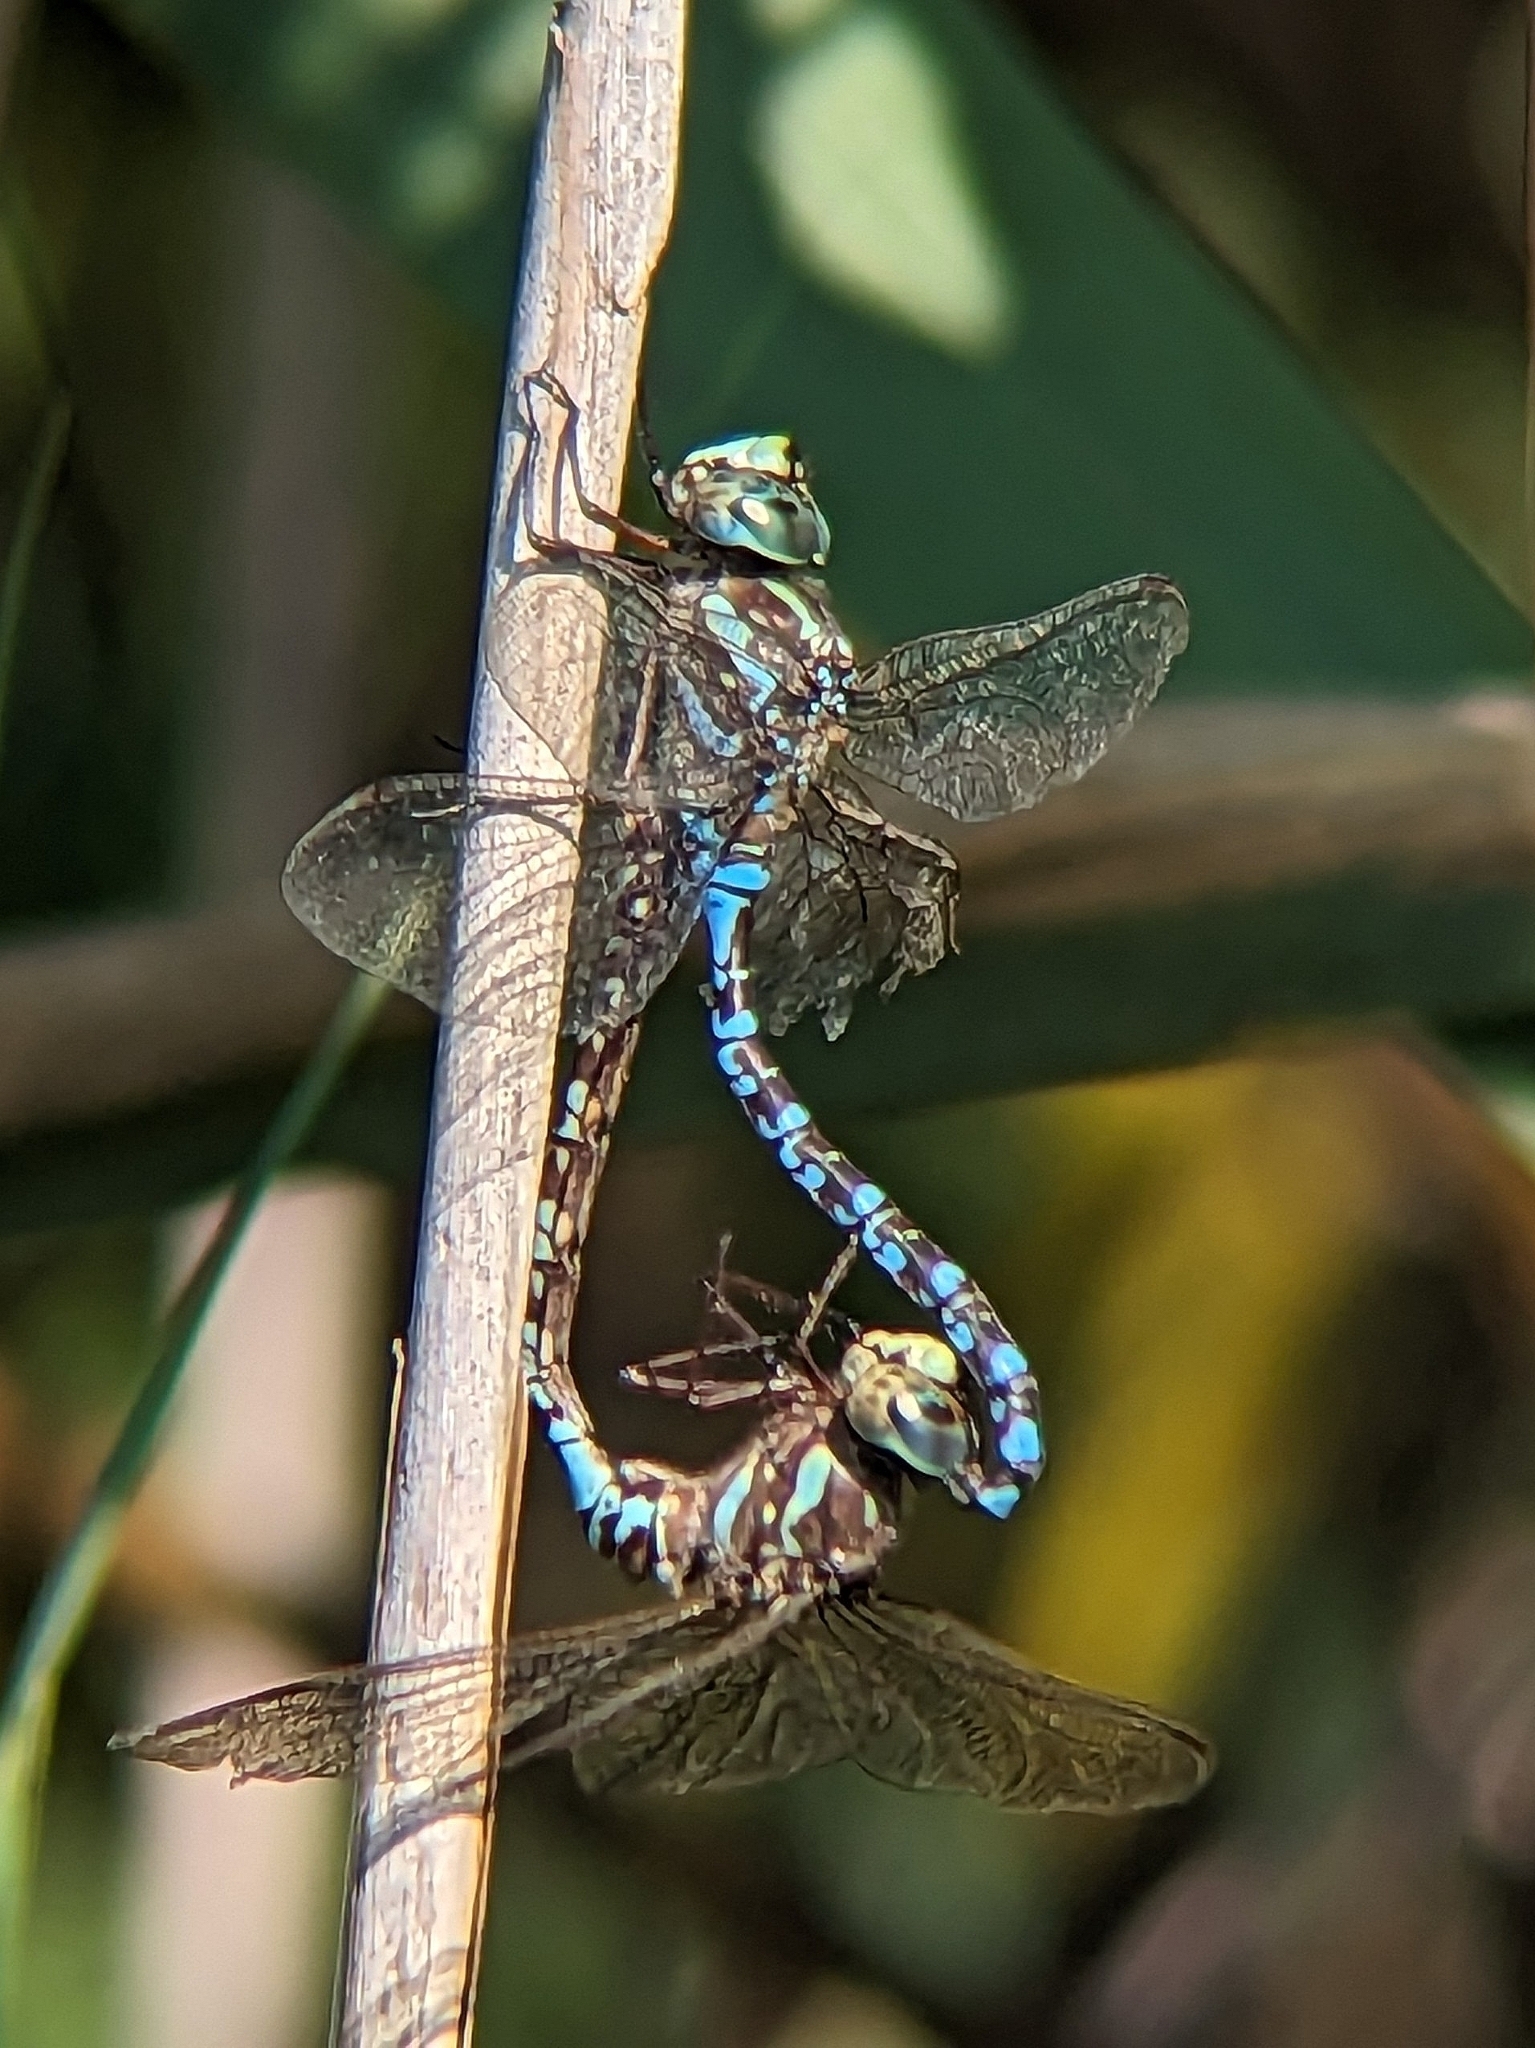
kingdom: Animalia
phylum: Arthropoda
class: Insecta
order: Odonata
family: Aeshnidae
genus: Aeshna
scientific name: Aeshna canadensis
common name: Canada darner
